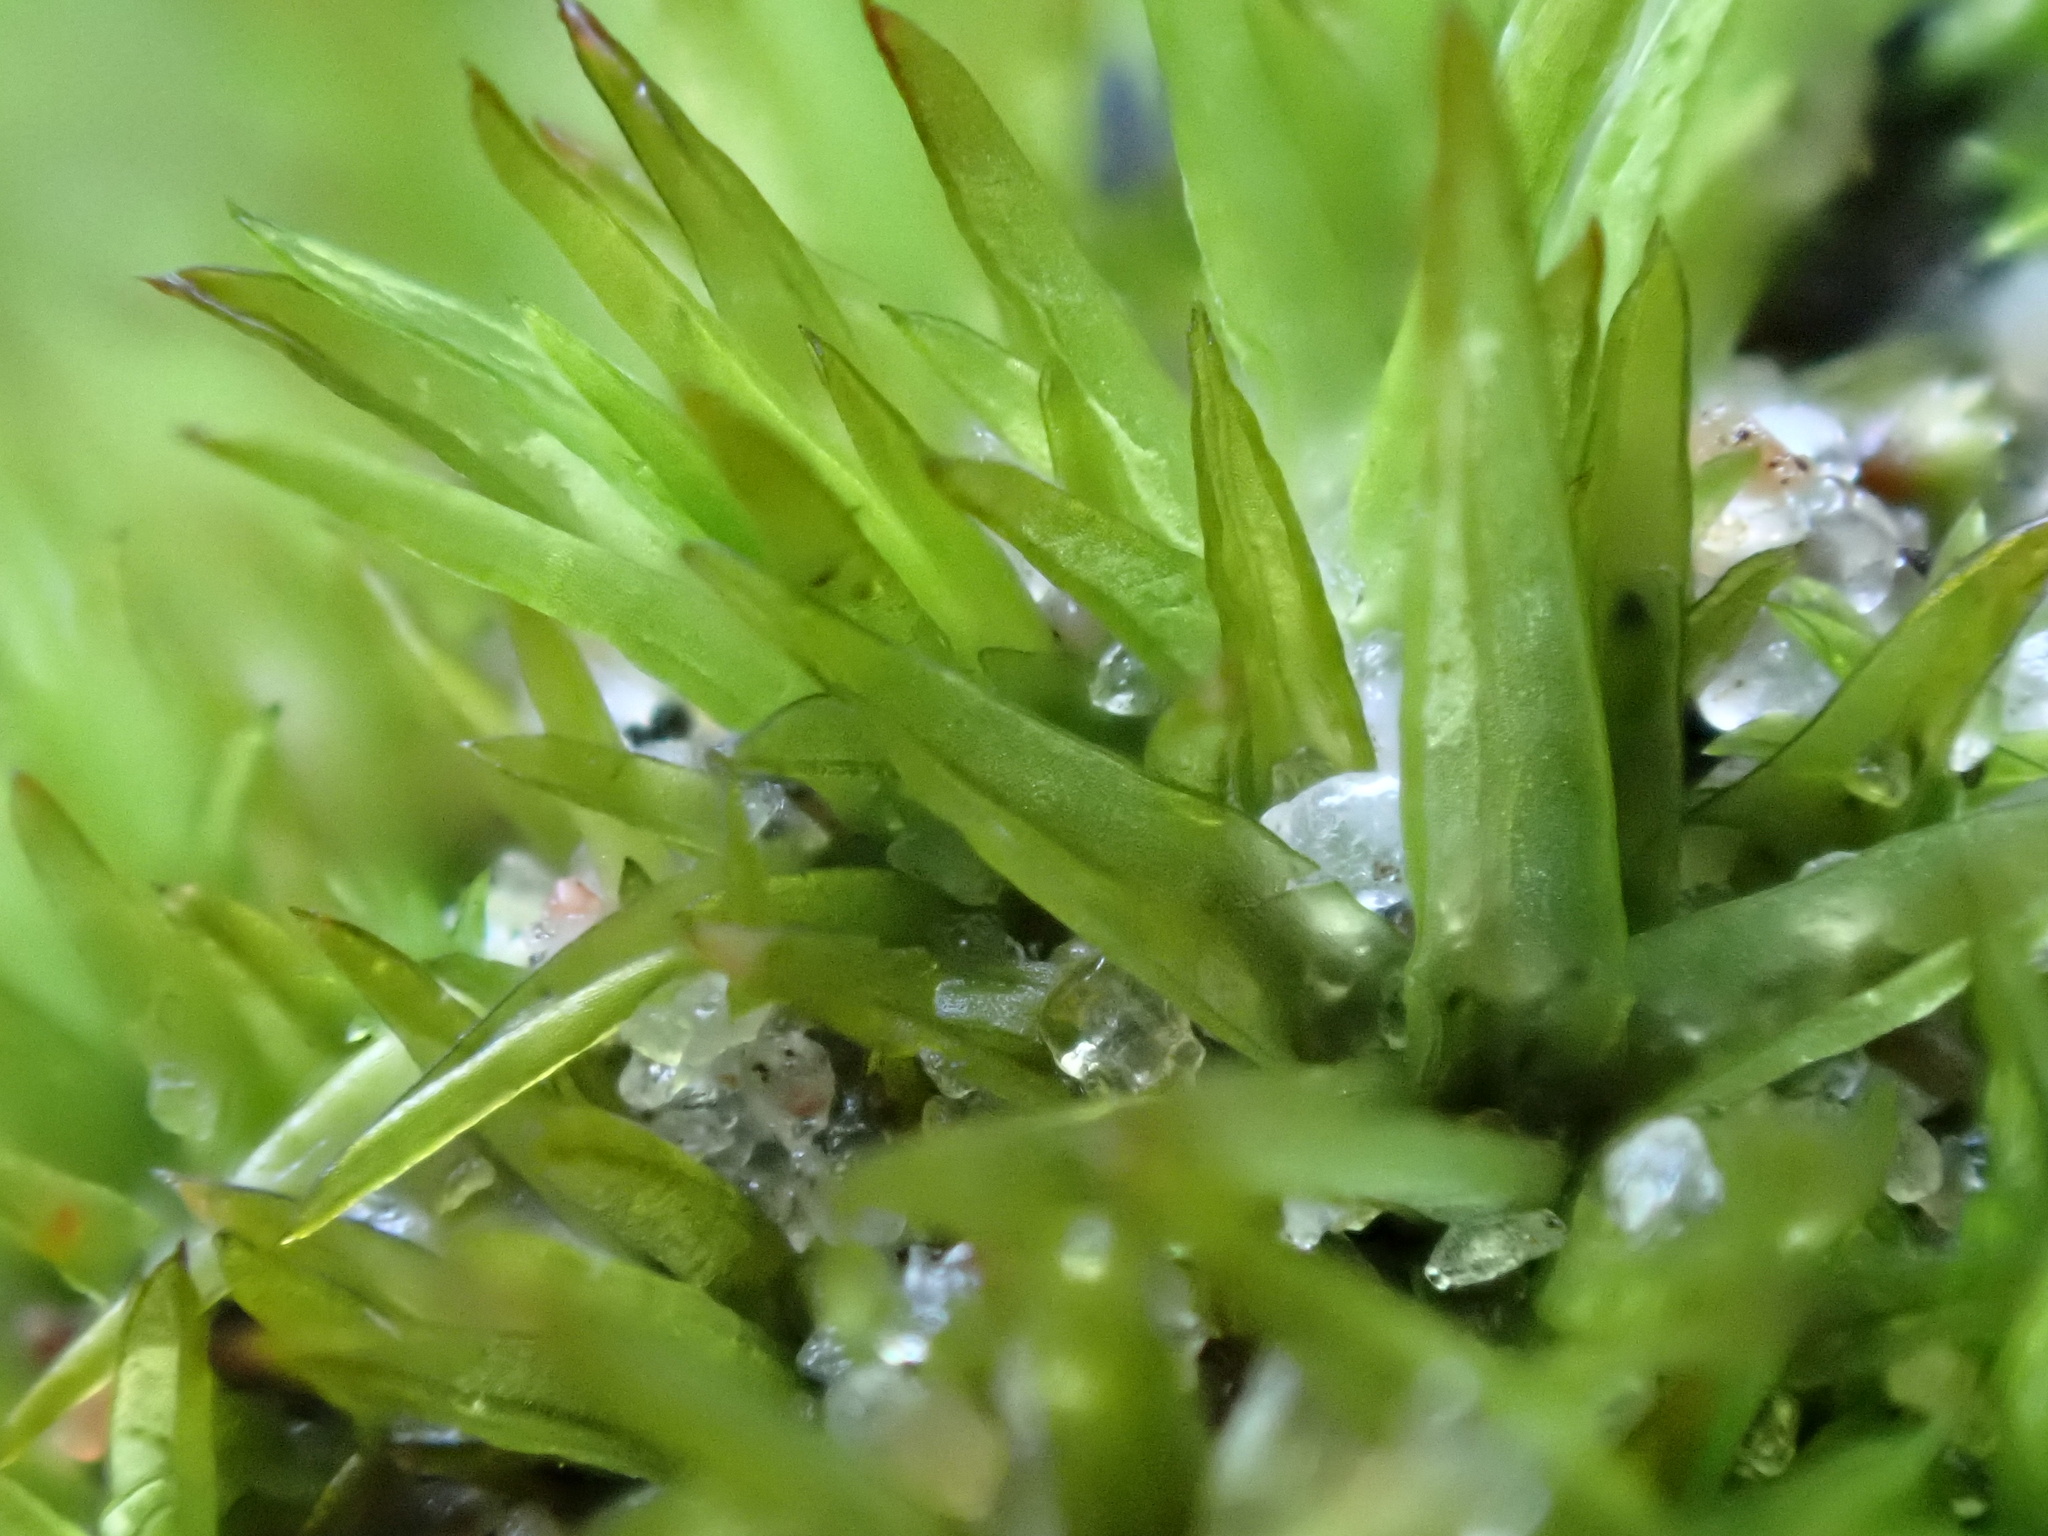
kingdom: Plantae
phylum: Bryophyta
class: Bryopsida
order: Pottiales
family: Pottiaceae
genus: Tortella
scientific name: Tortella flavovirens
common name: Arisaig crisp-moss
